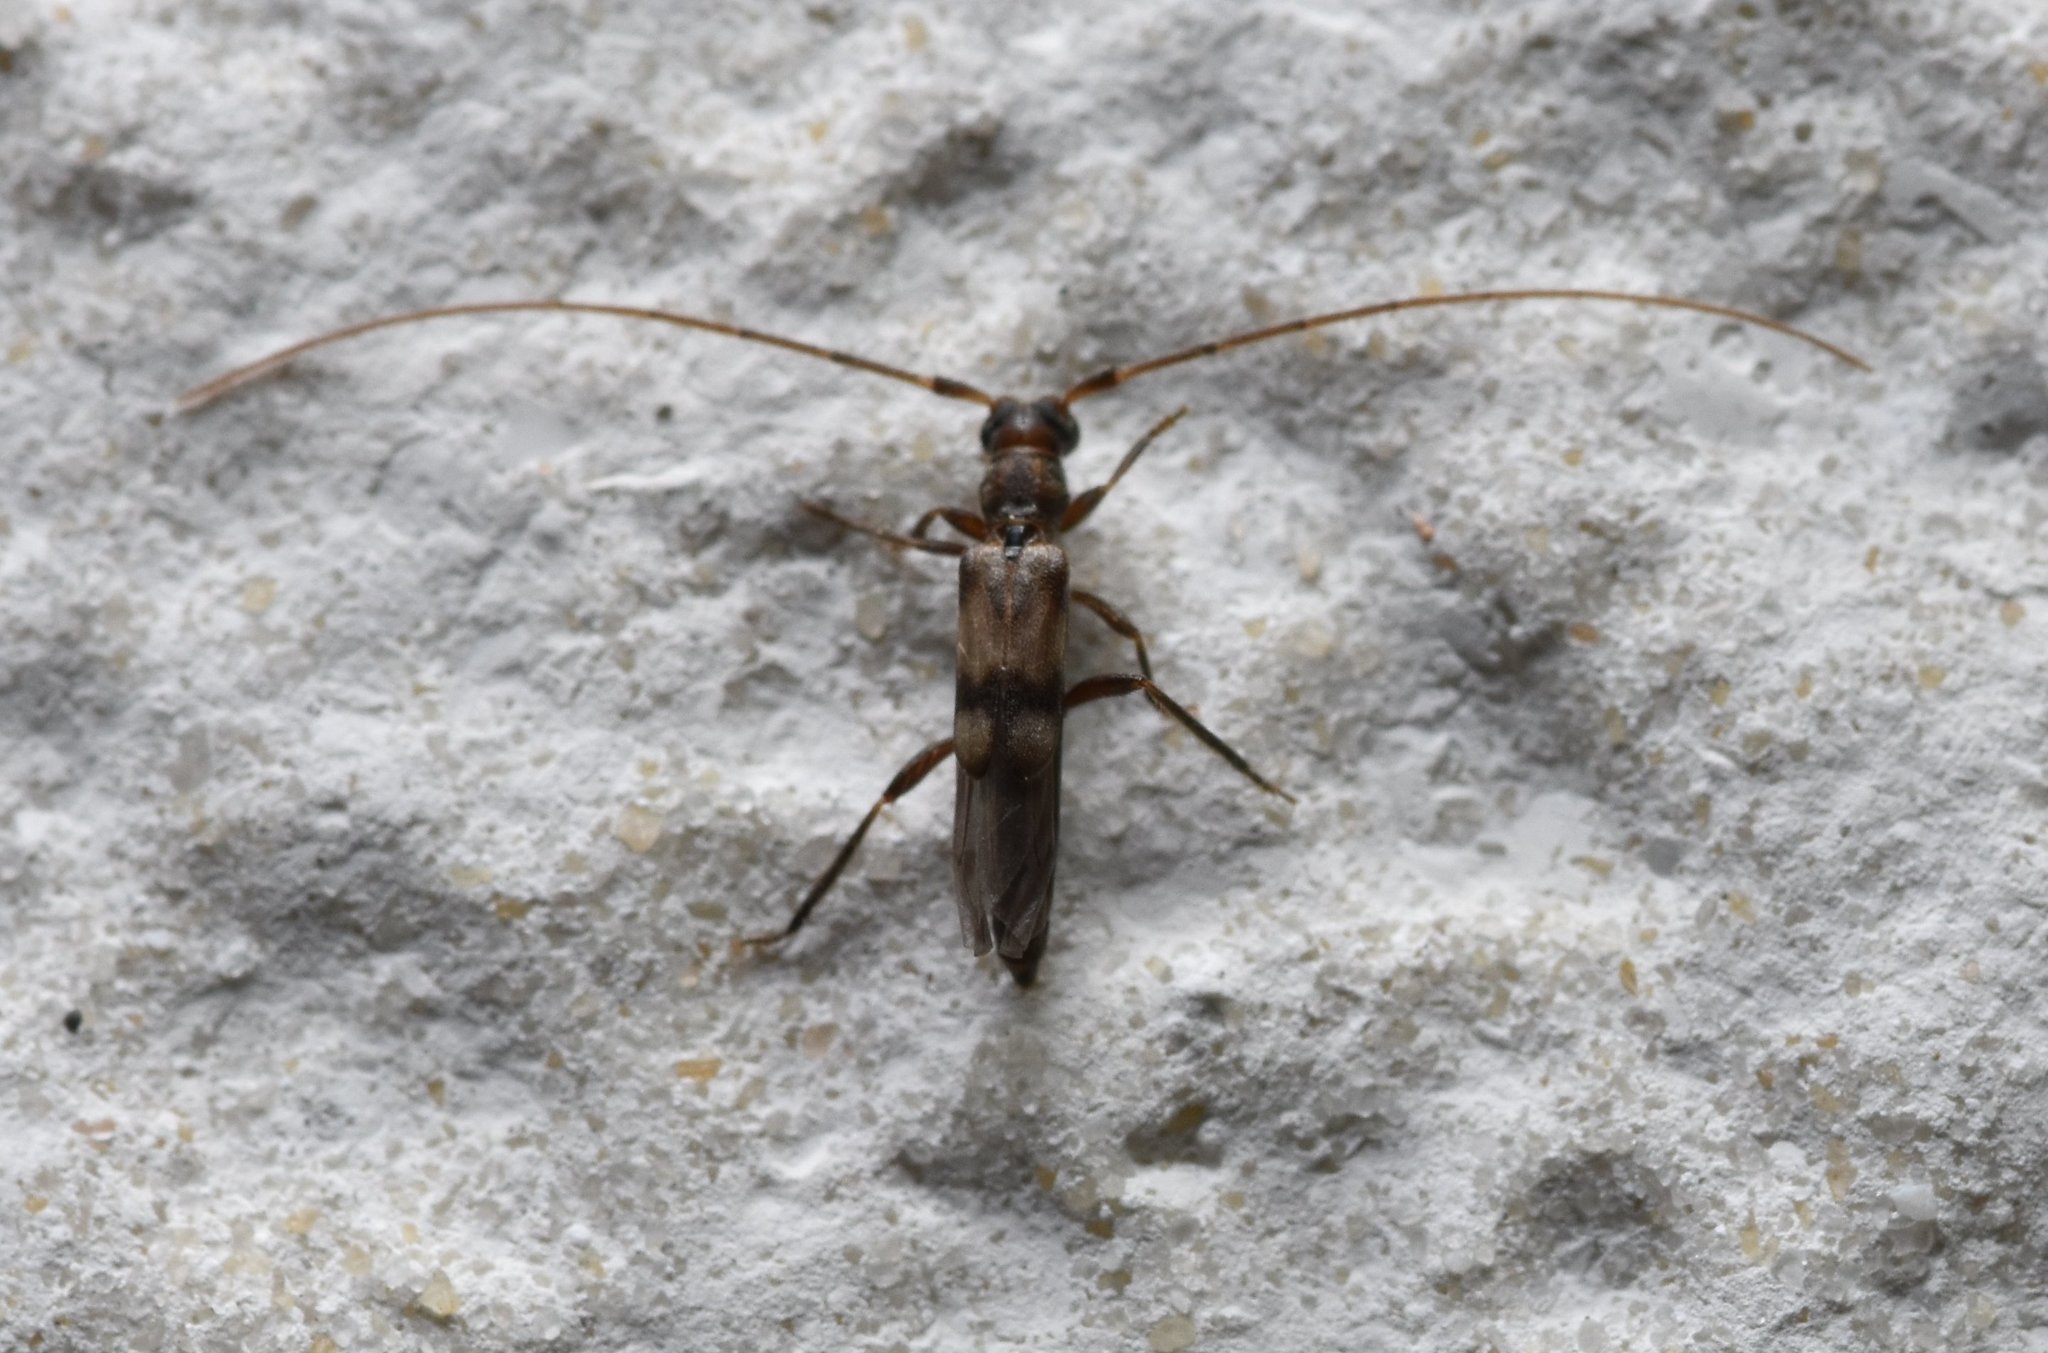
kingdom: Animalia
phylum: Arthropoda
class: Insecta
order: Coleoptera
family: Cerambycidae
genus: Methia
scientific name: Methia necydalea
